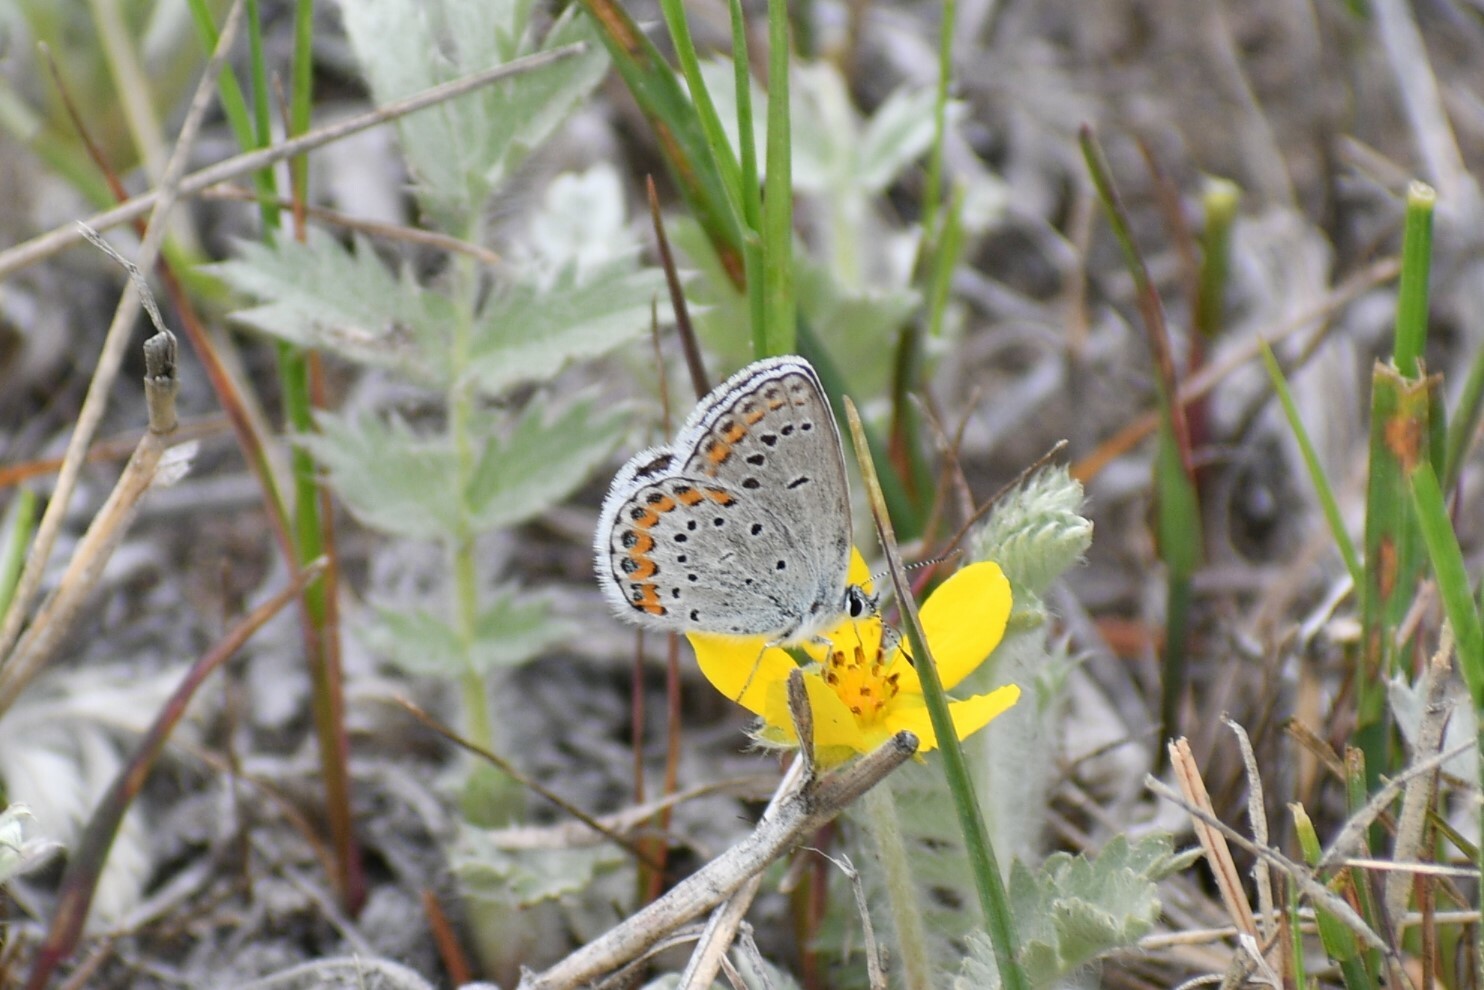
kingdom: Animalia
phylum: Arthropoda
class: Insecta
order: Lepidoptera
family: Lycaenidae
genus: Lycaeides
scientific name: Lycaeides melissa
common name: Melissa blue
